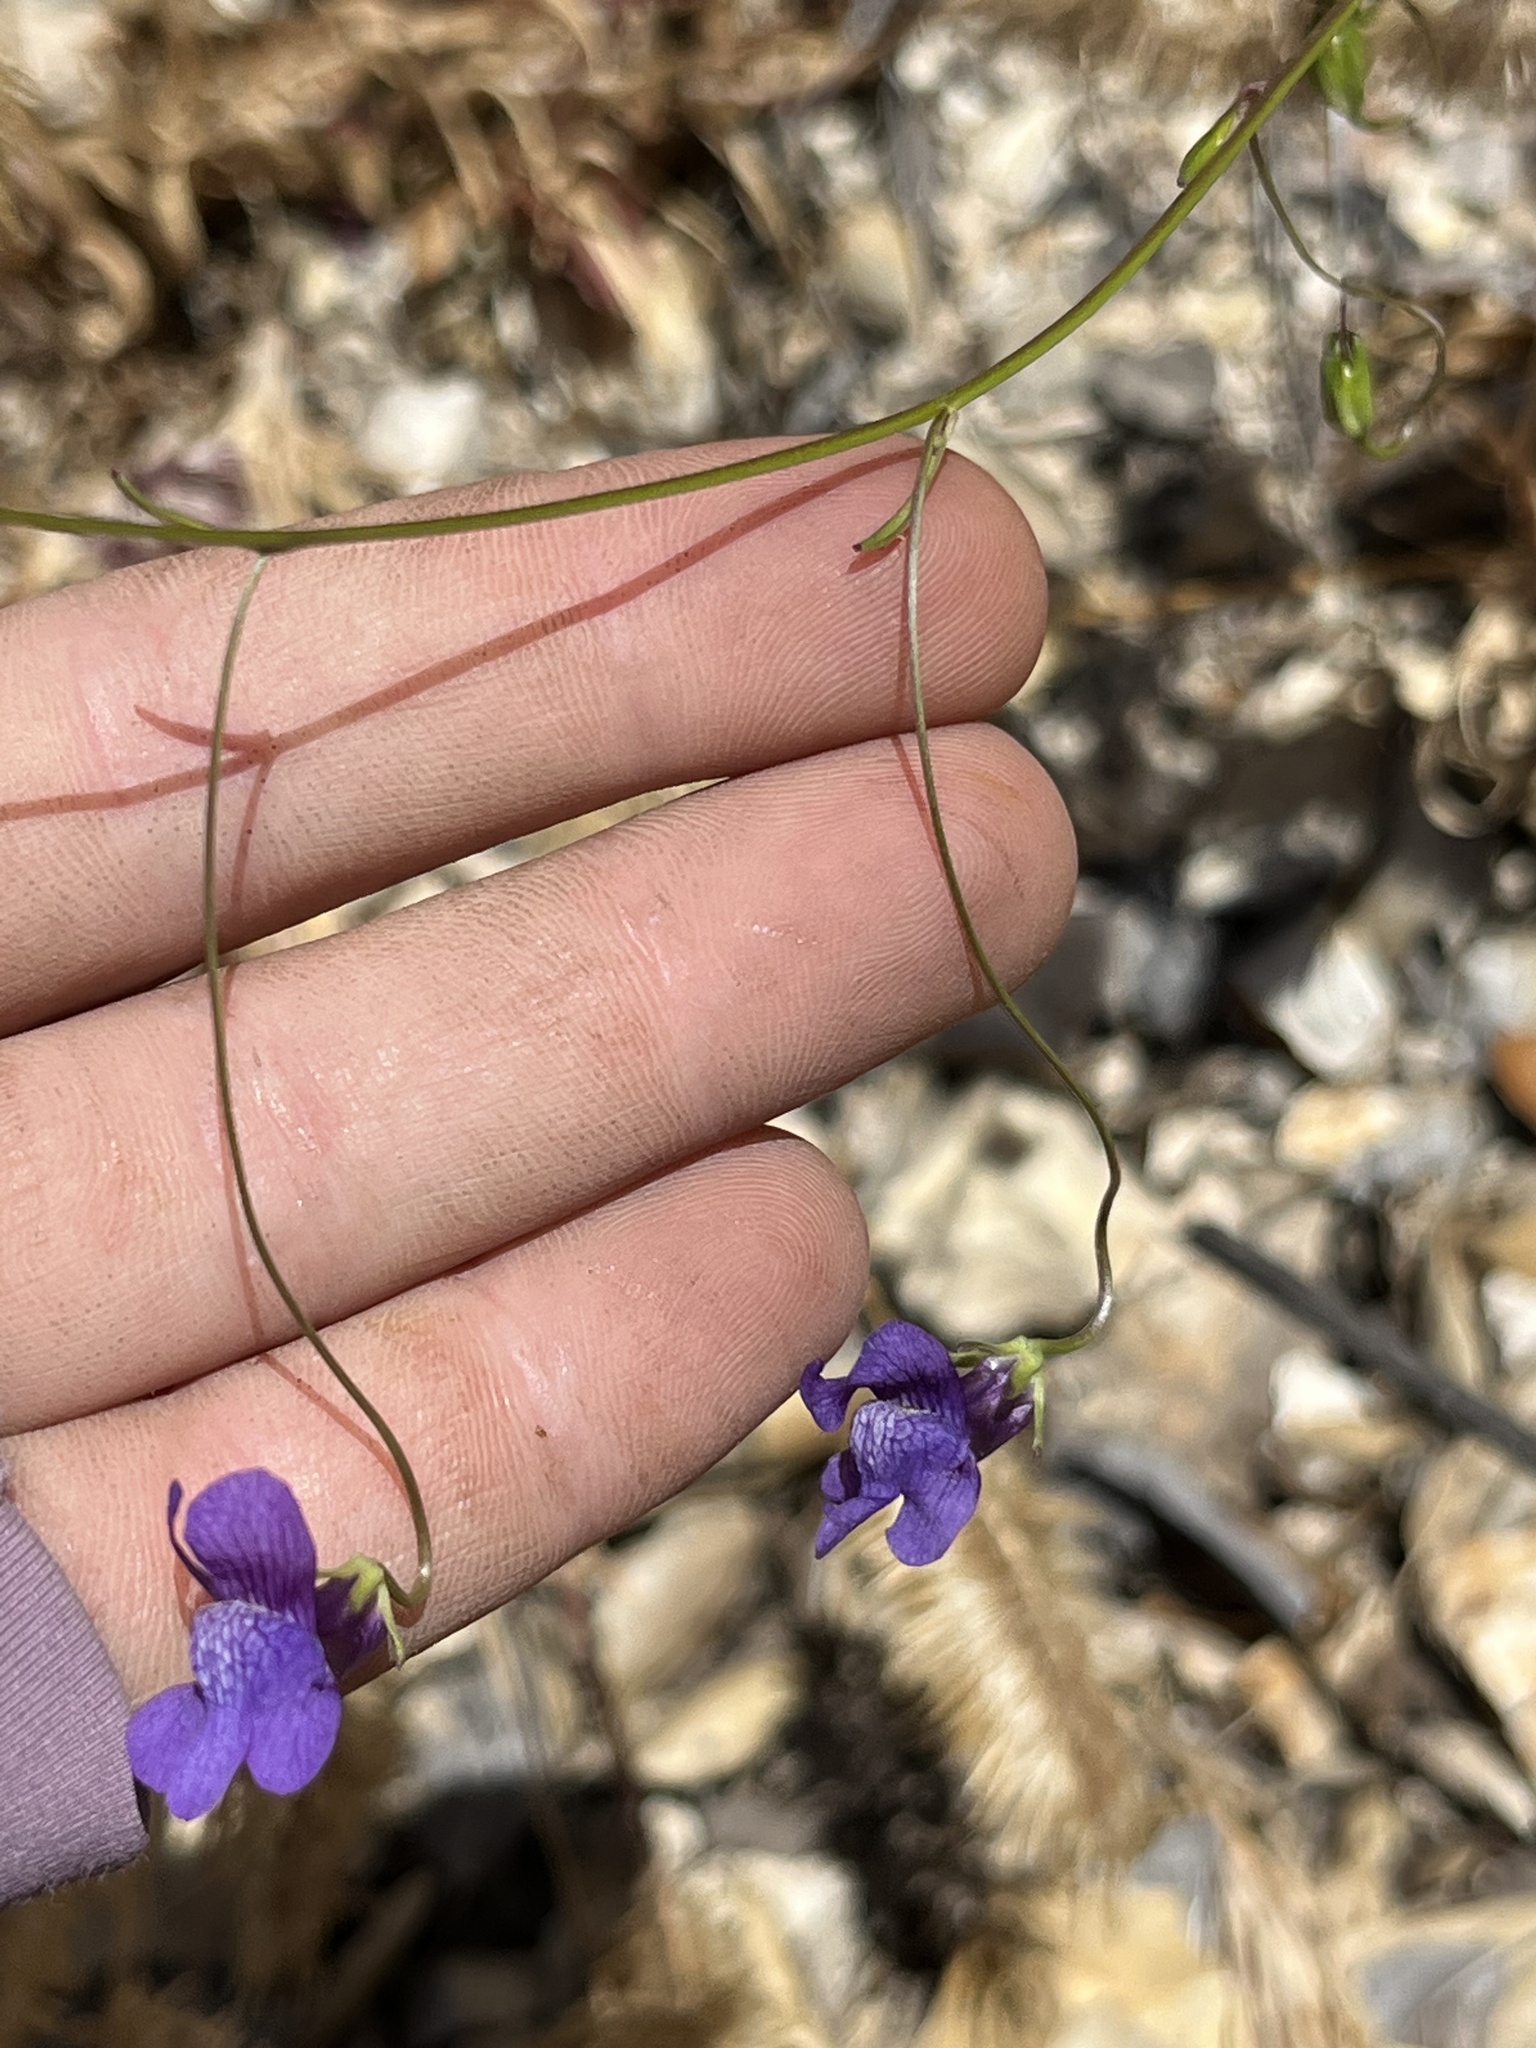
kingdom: Plantae
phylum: Tracheophyta
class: Magnoliopsida
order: Lamiales
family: Plantaginaceae
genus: Neogaerrhinum
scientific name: Neogaerrhinum strictum
